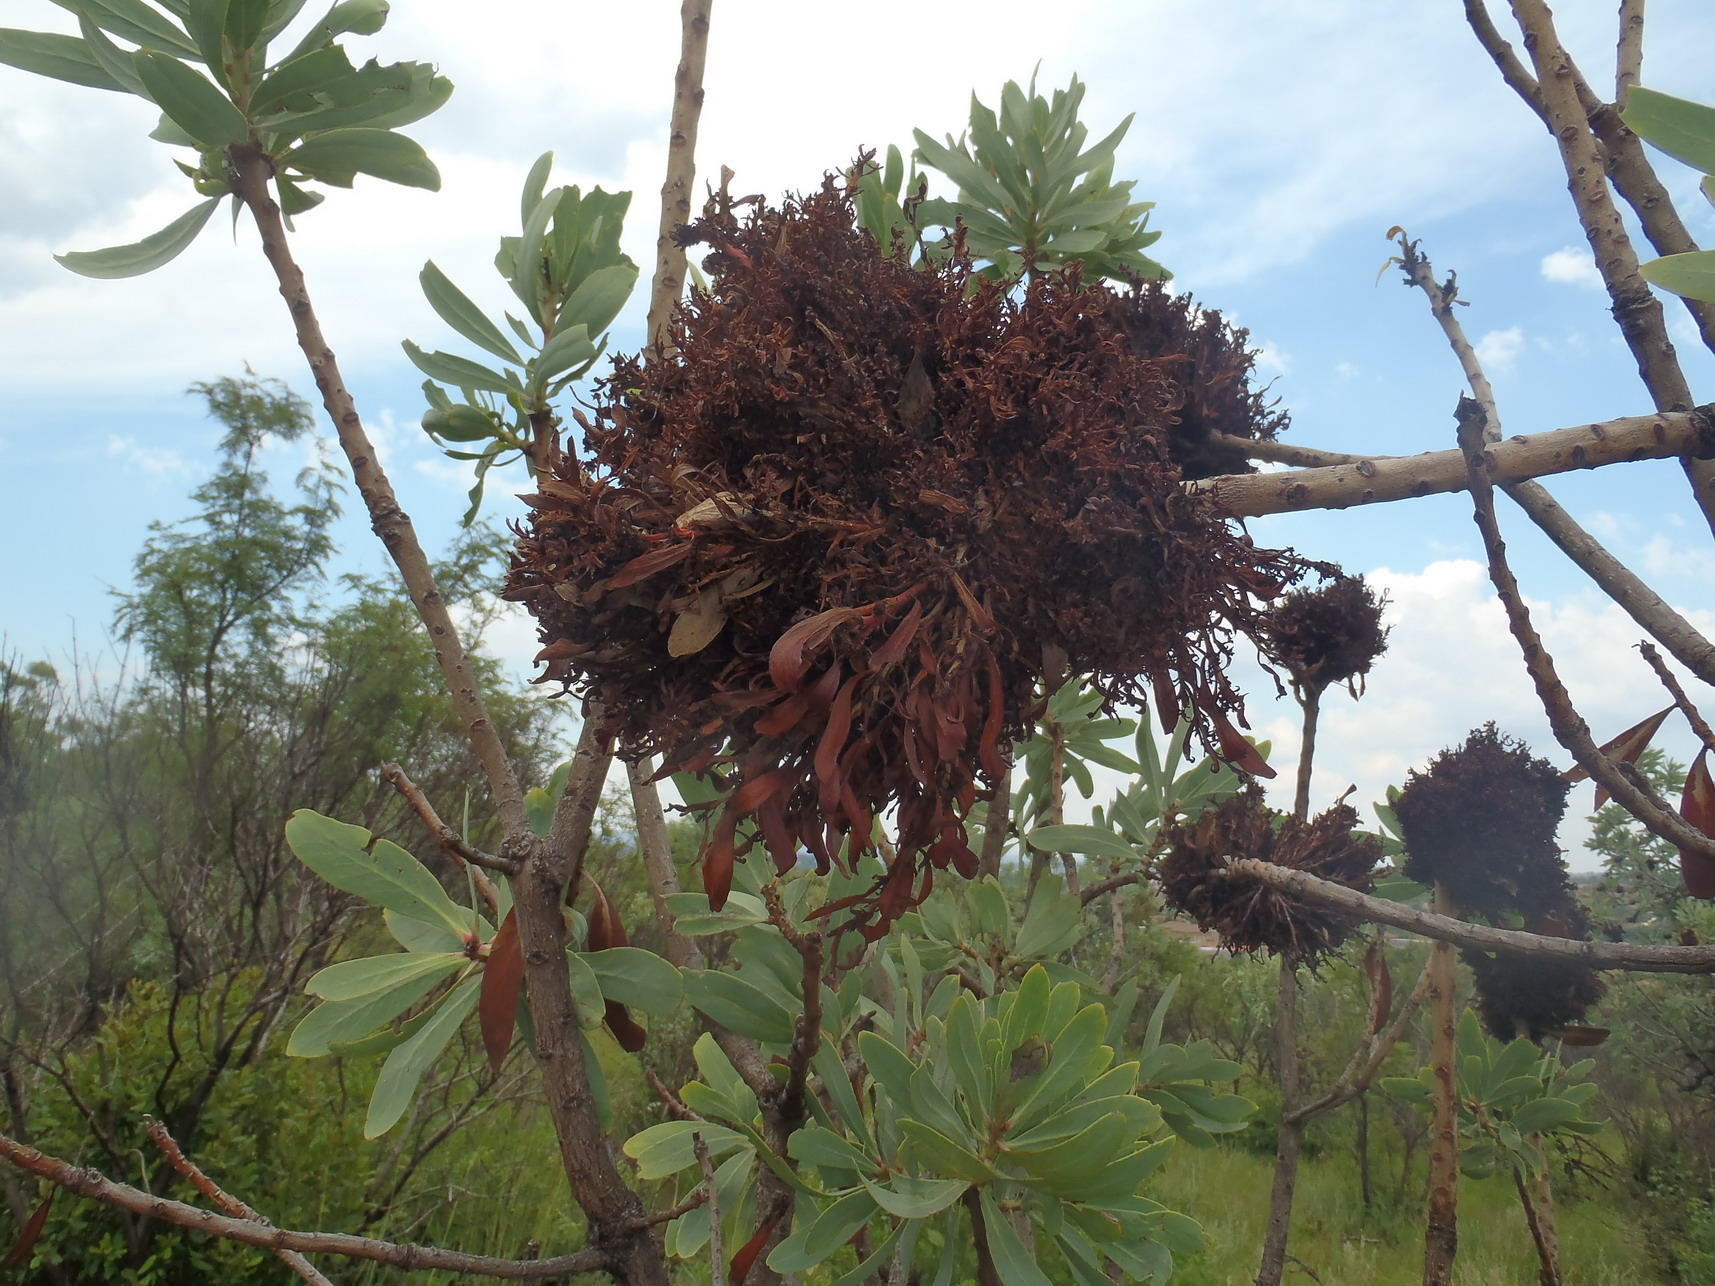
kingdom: Bacteria
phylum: Firmicutes
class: Bacilli
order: Acholeplasmatales
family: Acholeplasmataceae
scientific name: Acholeplasmataceae
